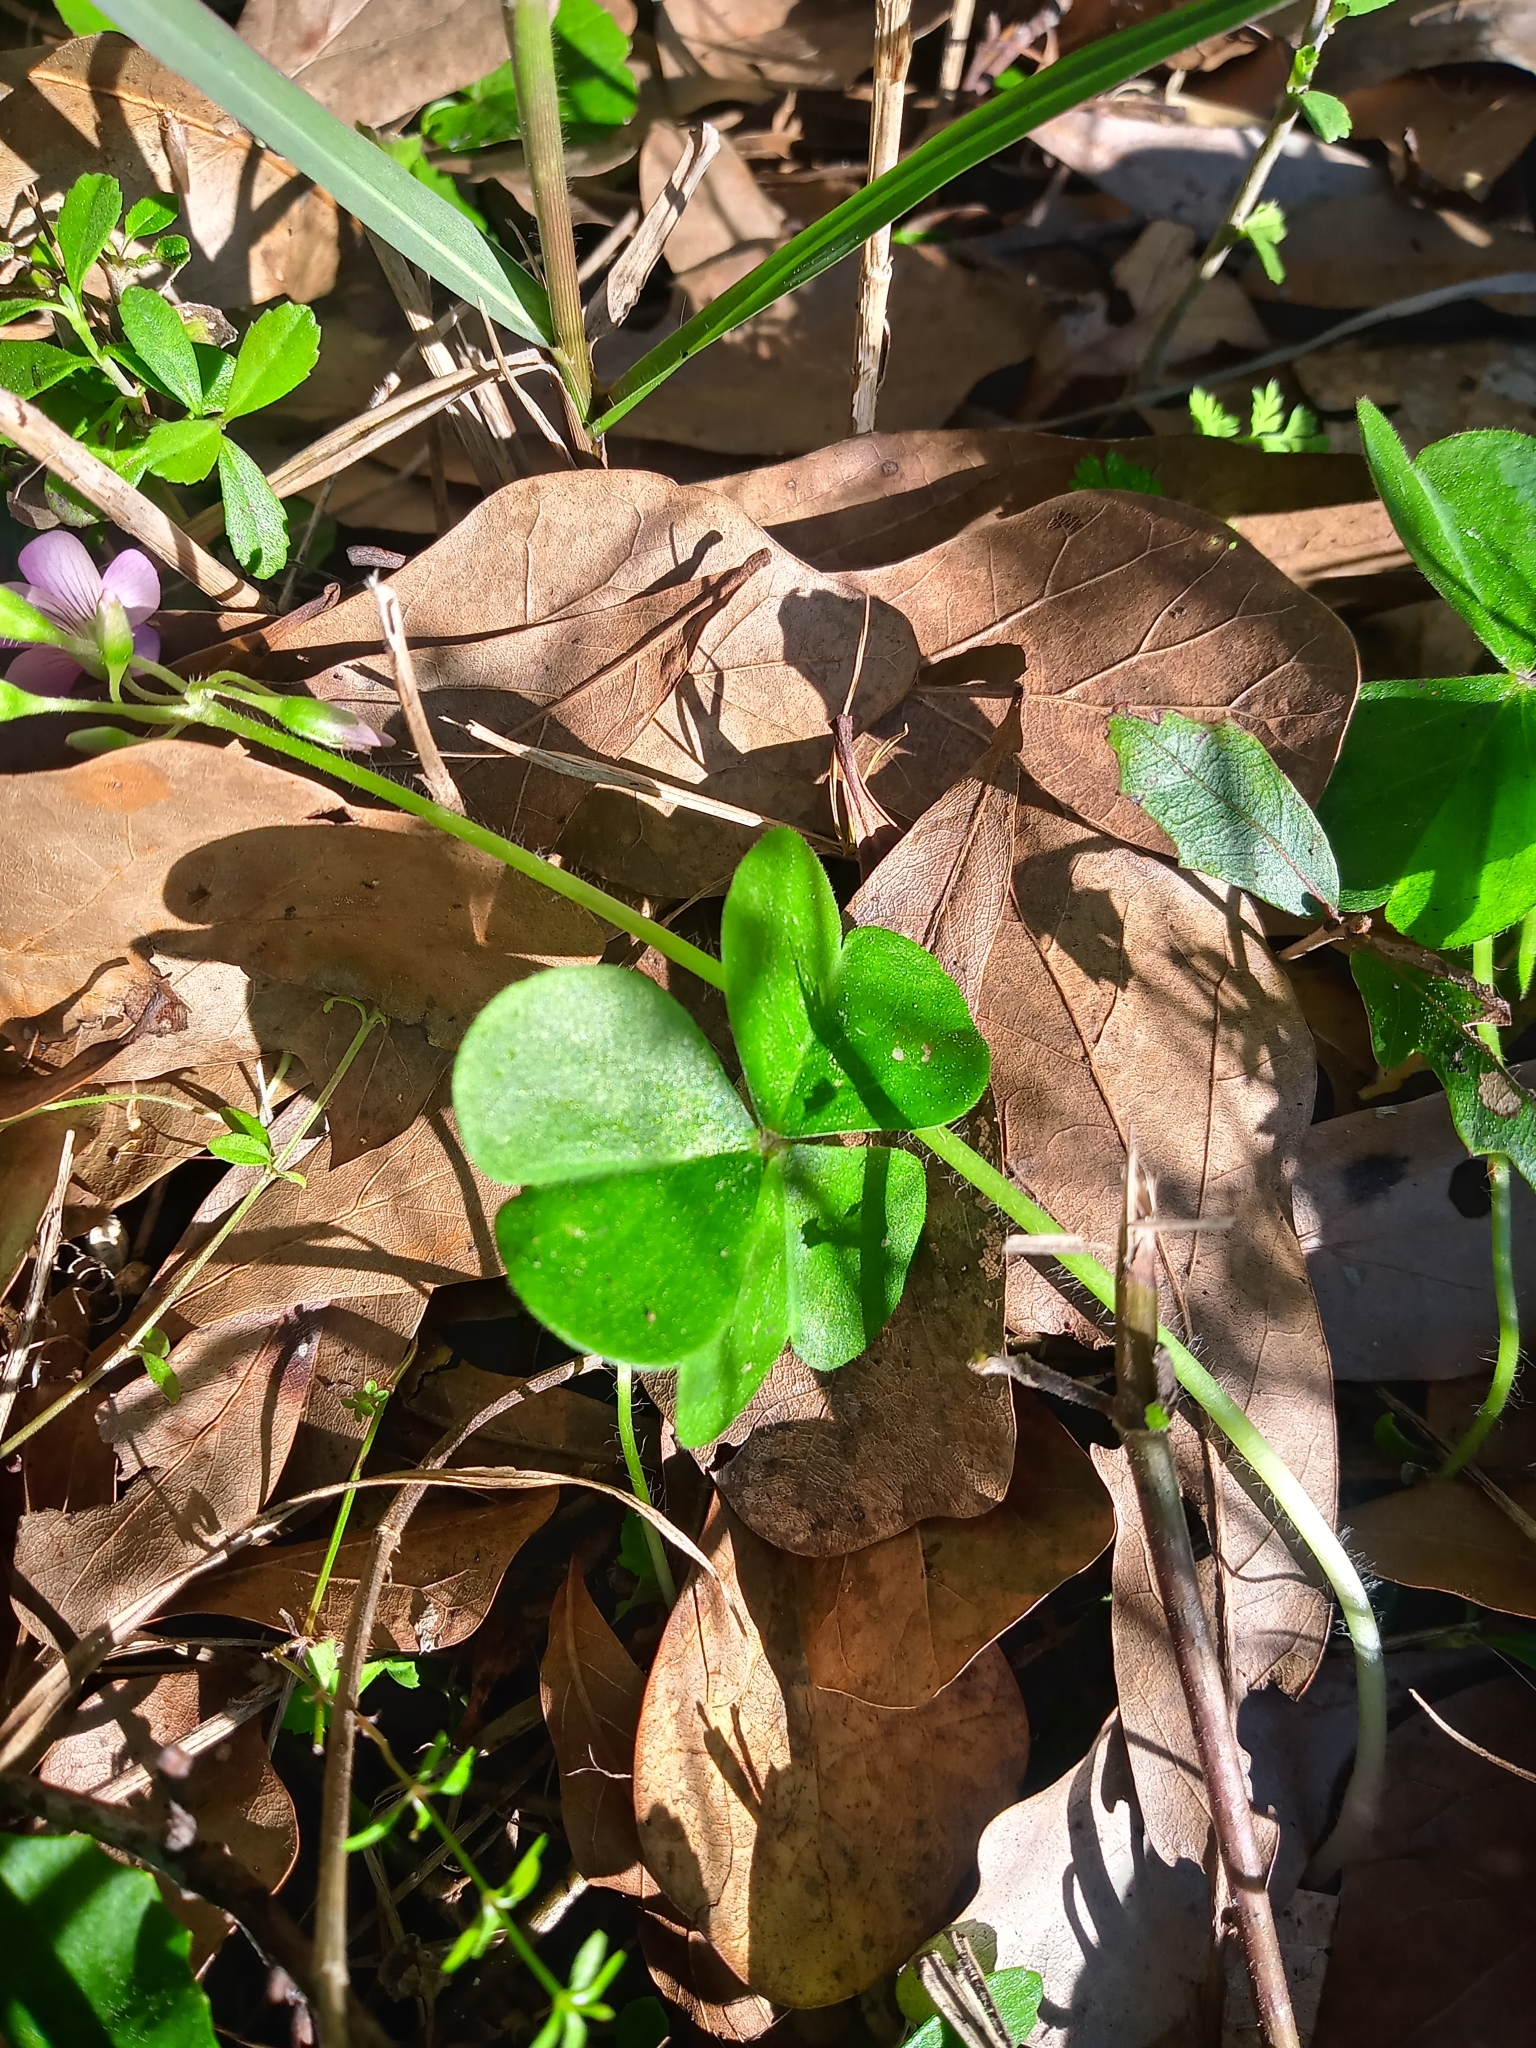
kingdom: Plantae
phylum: Tracheophyta
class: Magnoliopsida
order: Oxalidales
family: Oxalidaceae
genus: Oxalis
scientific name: Oxalis debilis
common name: Large-flowered pink-sorrel
